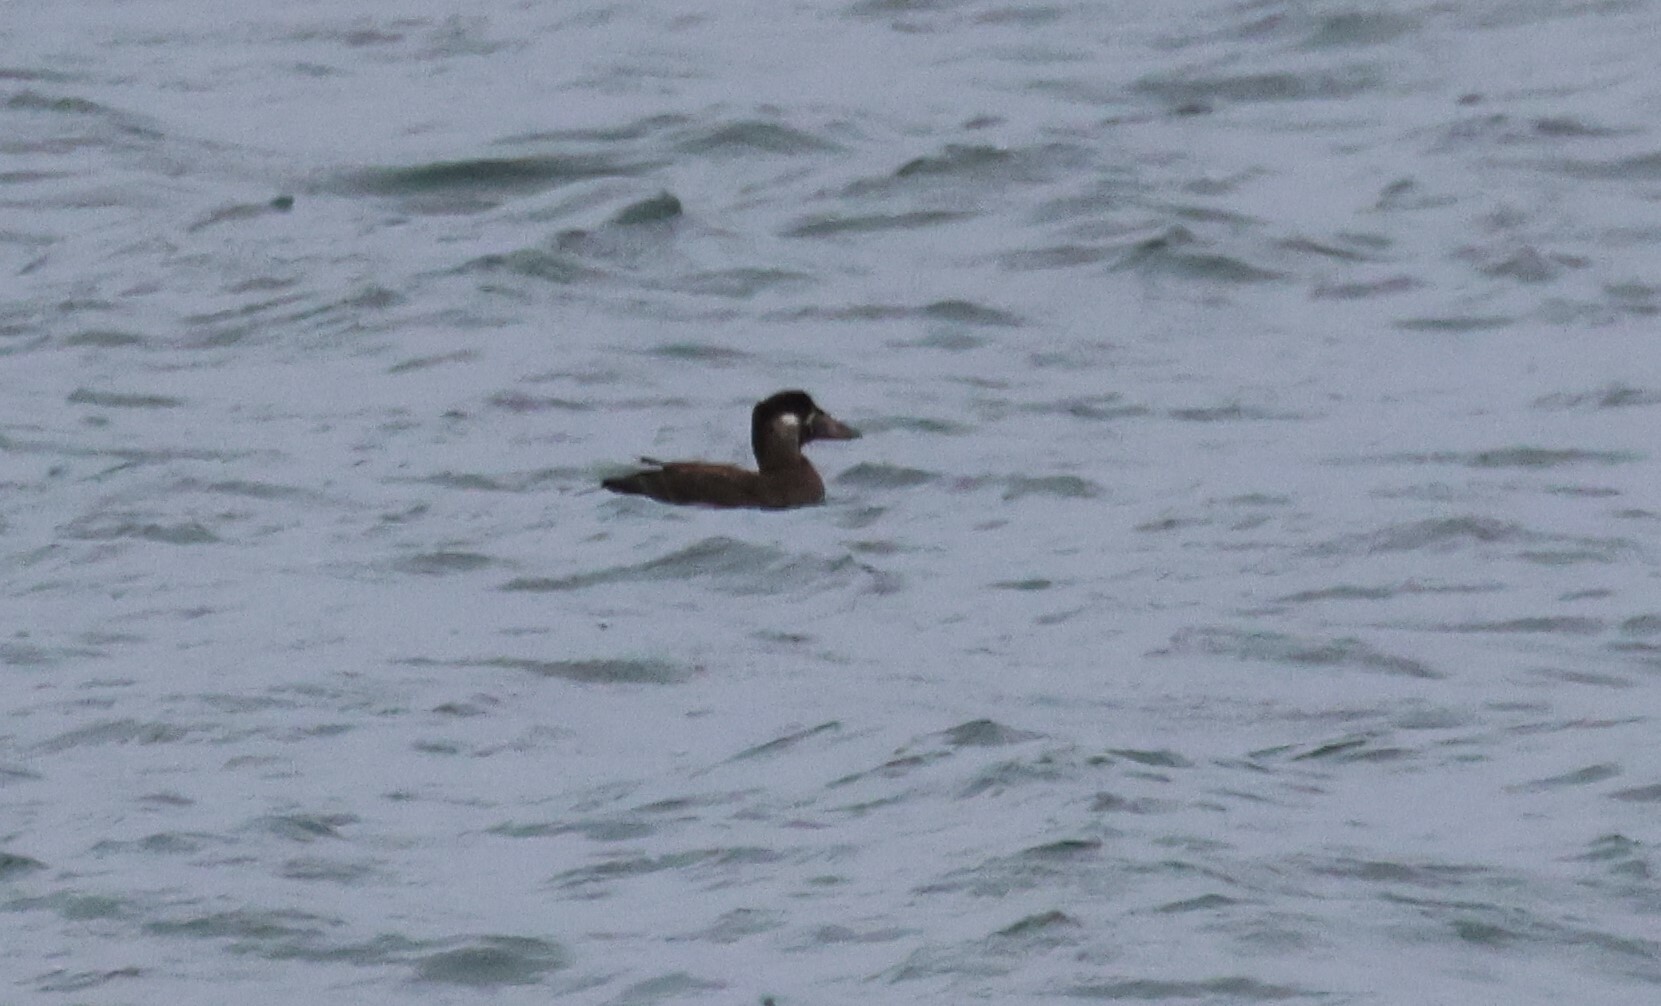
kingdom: Animalia
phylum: Chordata
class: Aves
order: Anseriformes
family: Anatidae
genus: Melanitta
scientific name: Melanitta perspicillata
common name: Surf scoter
